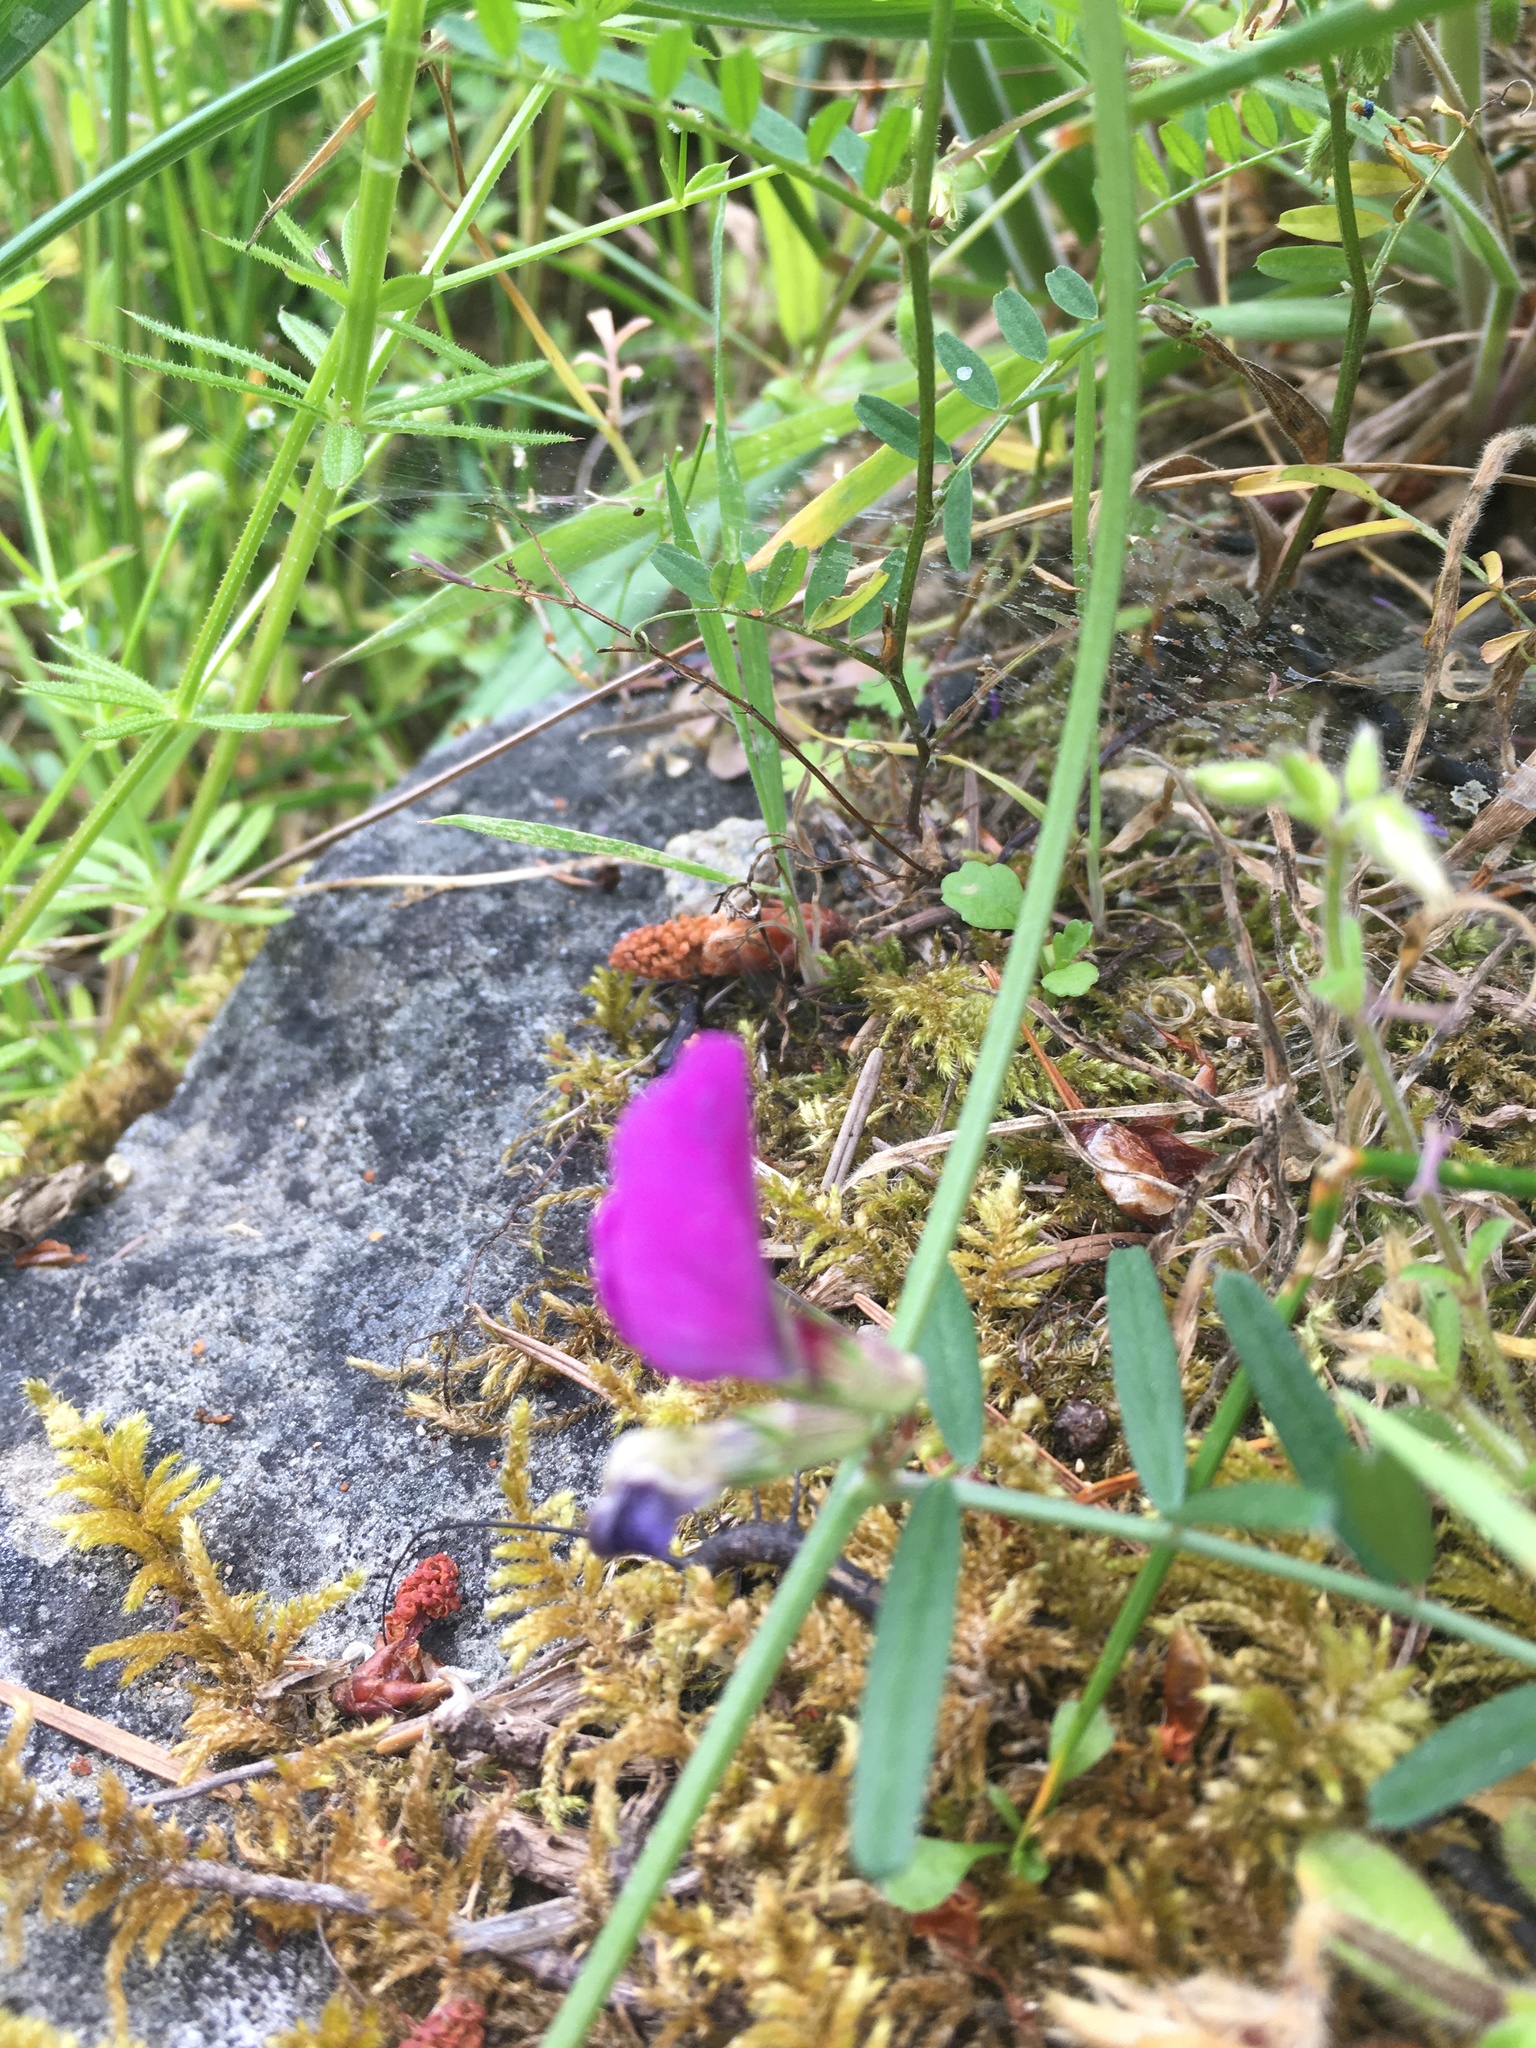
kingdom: Plantae
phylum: Tracheophyta
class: Magnoliopsida
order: Fabales
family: Fabaceae
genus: Vicia
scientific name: Vicia sativa
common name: Garden vetch
